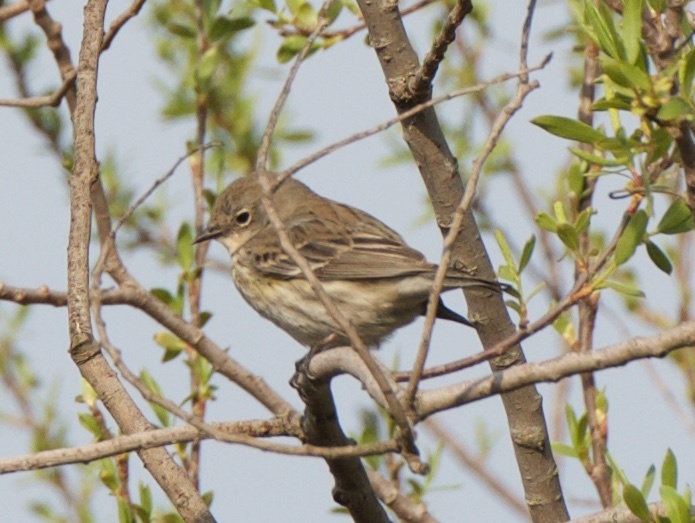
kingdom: Animalia
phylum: Chordata
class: Aves
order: Passeriformes
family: Parulidae
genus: Setophaga
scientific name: Setophaga coronata
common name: Myrtle warbler
